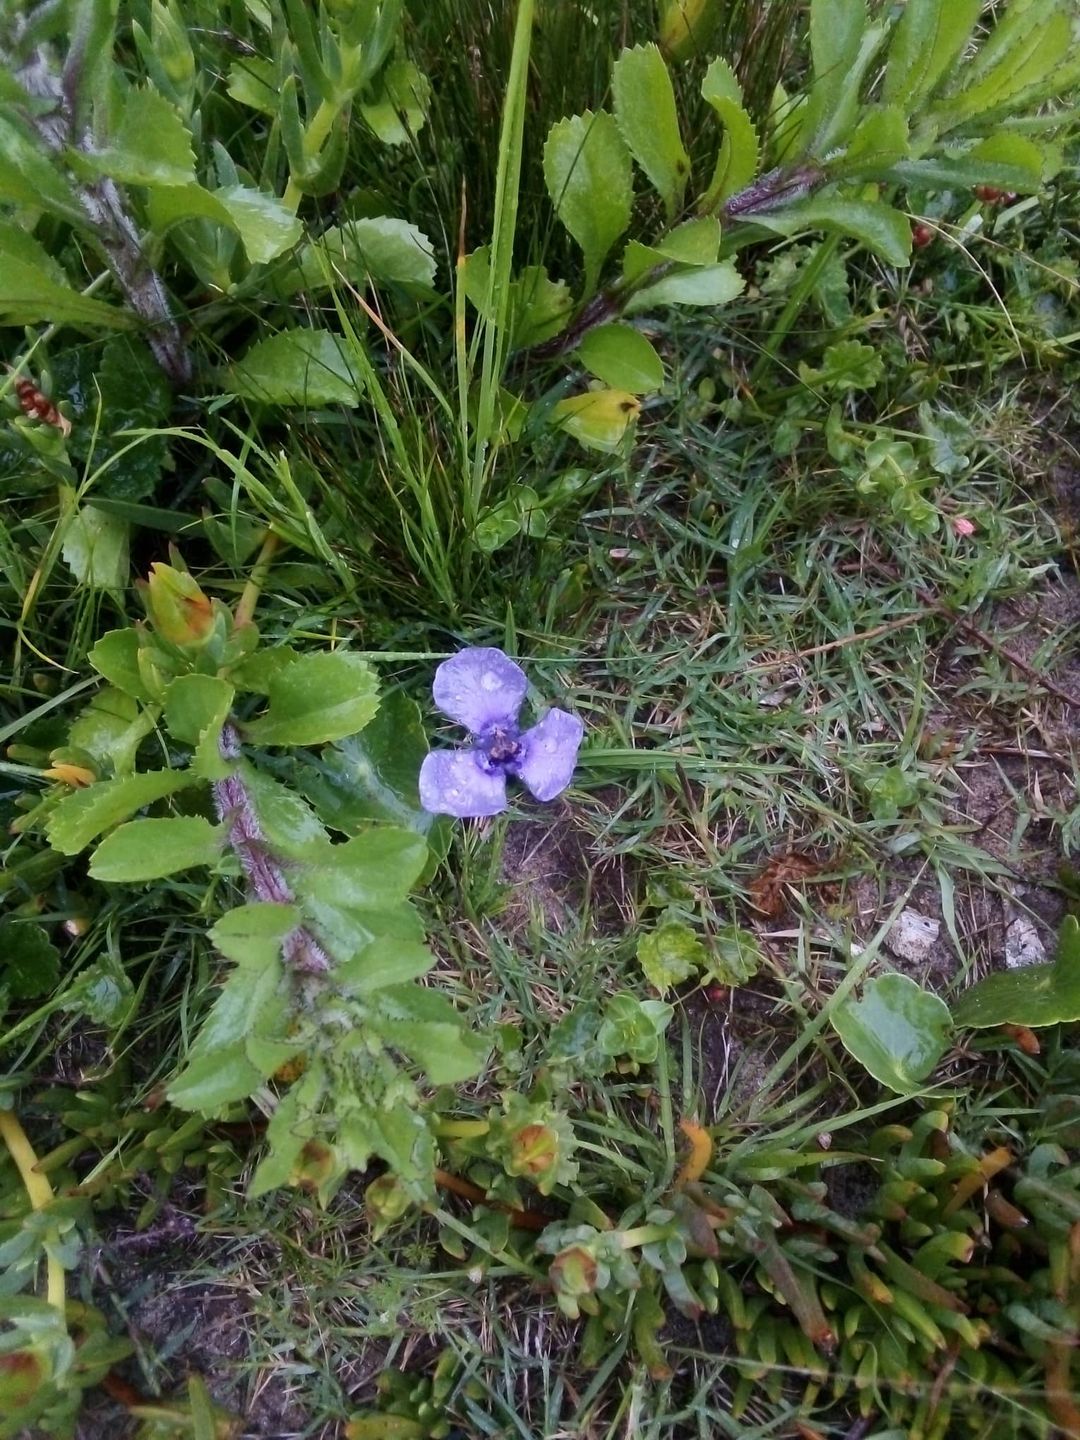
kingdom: Plantae
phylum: Tracheophyta
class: Liliopsida
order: Asparagales
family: Iridaceae
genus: Herbertia
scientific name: Herbertia lahue
